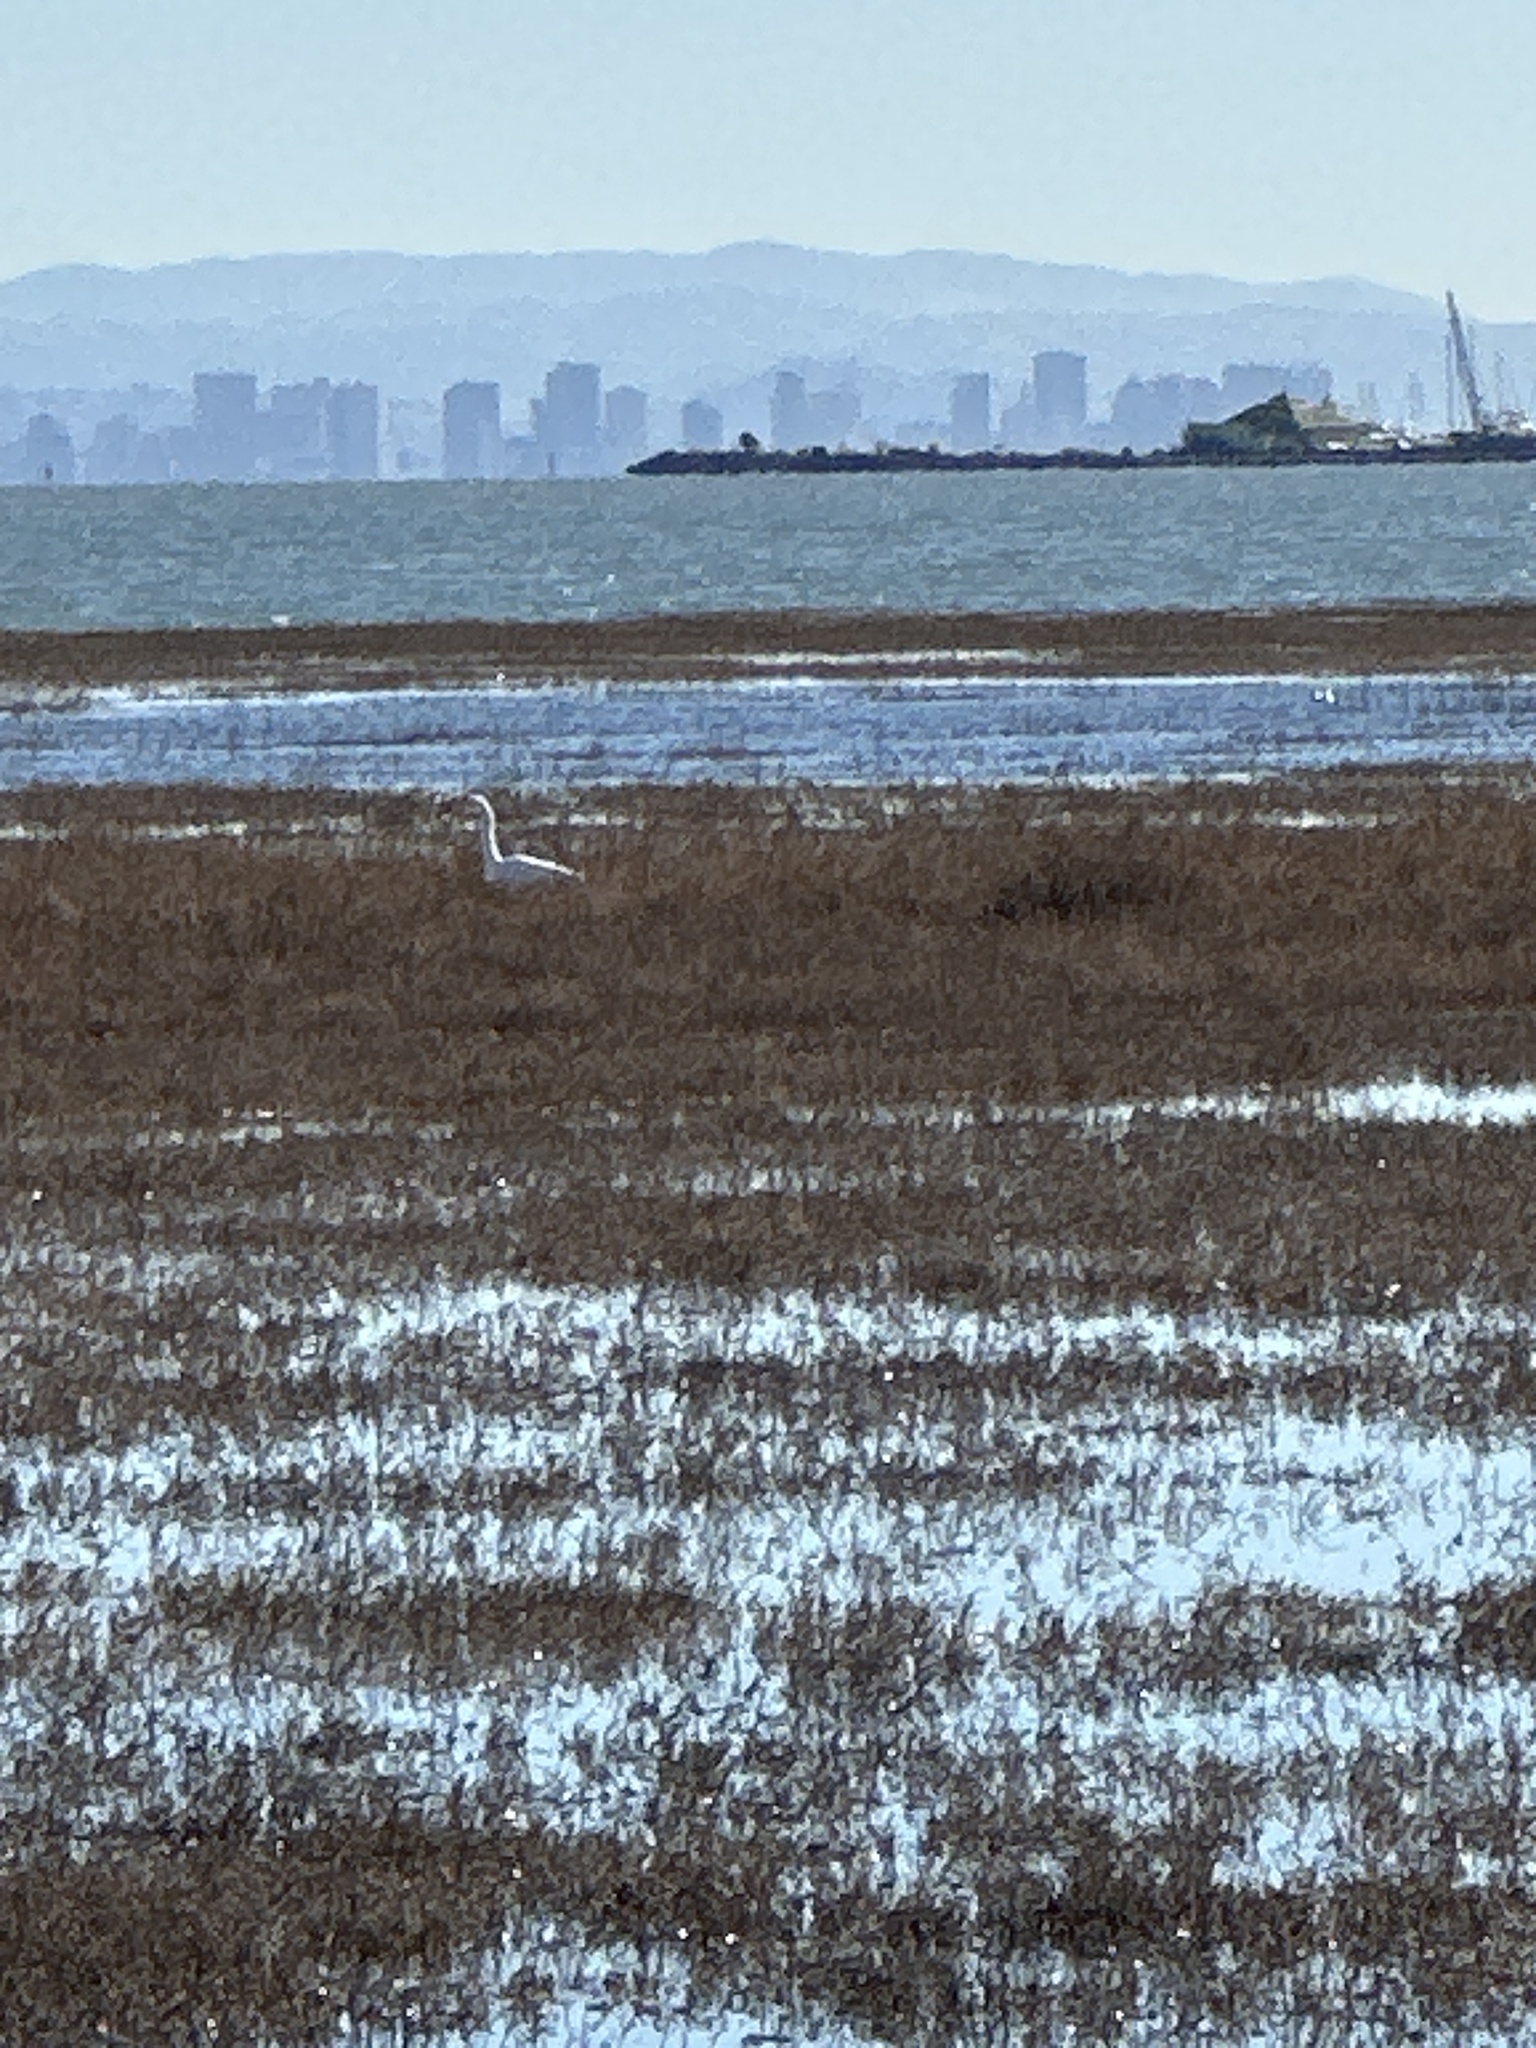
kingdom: Animalia
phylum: Chordata
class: Aves
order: Pelecaniformes
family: Ardeidae
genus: Ardea
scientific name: Ardea alba
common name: Great egret
